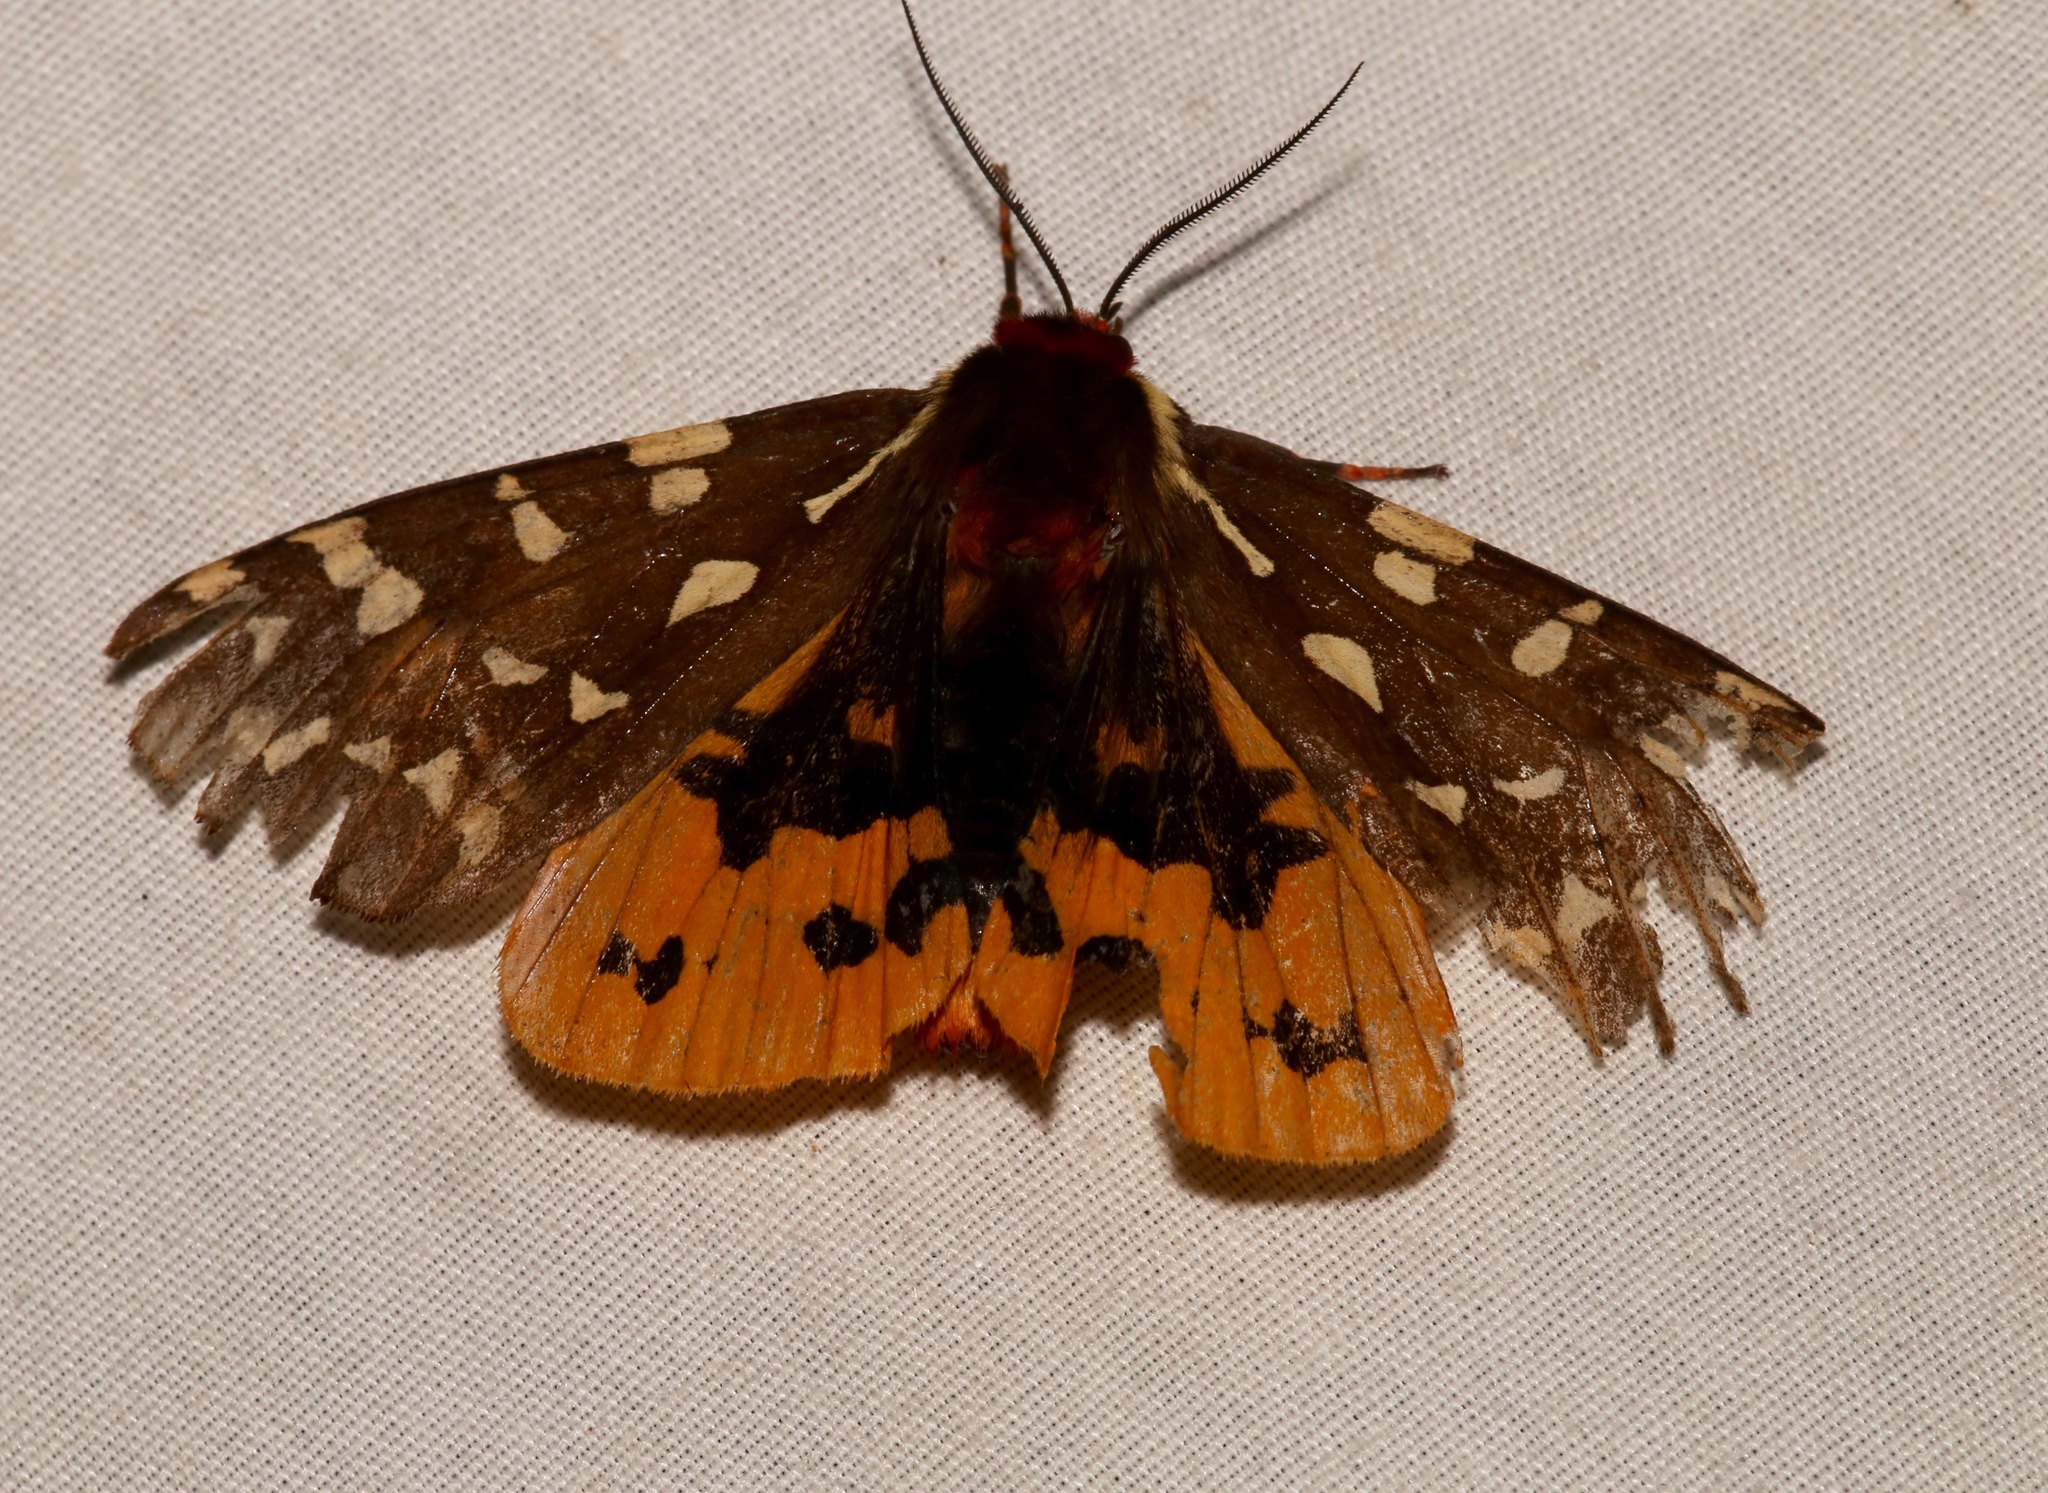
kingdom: Animalia
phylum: Arthropoda
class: Insecta
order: Lepidoptera
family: Erebidae
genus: Arctia
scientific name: Arctia parthenos
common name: St. lawrence tiger moth
